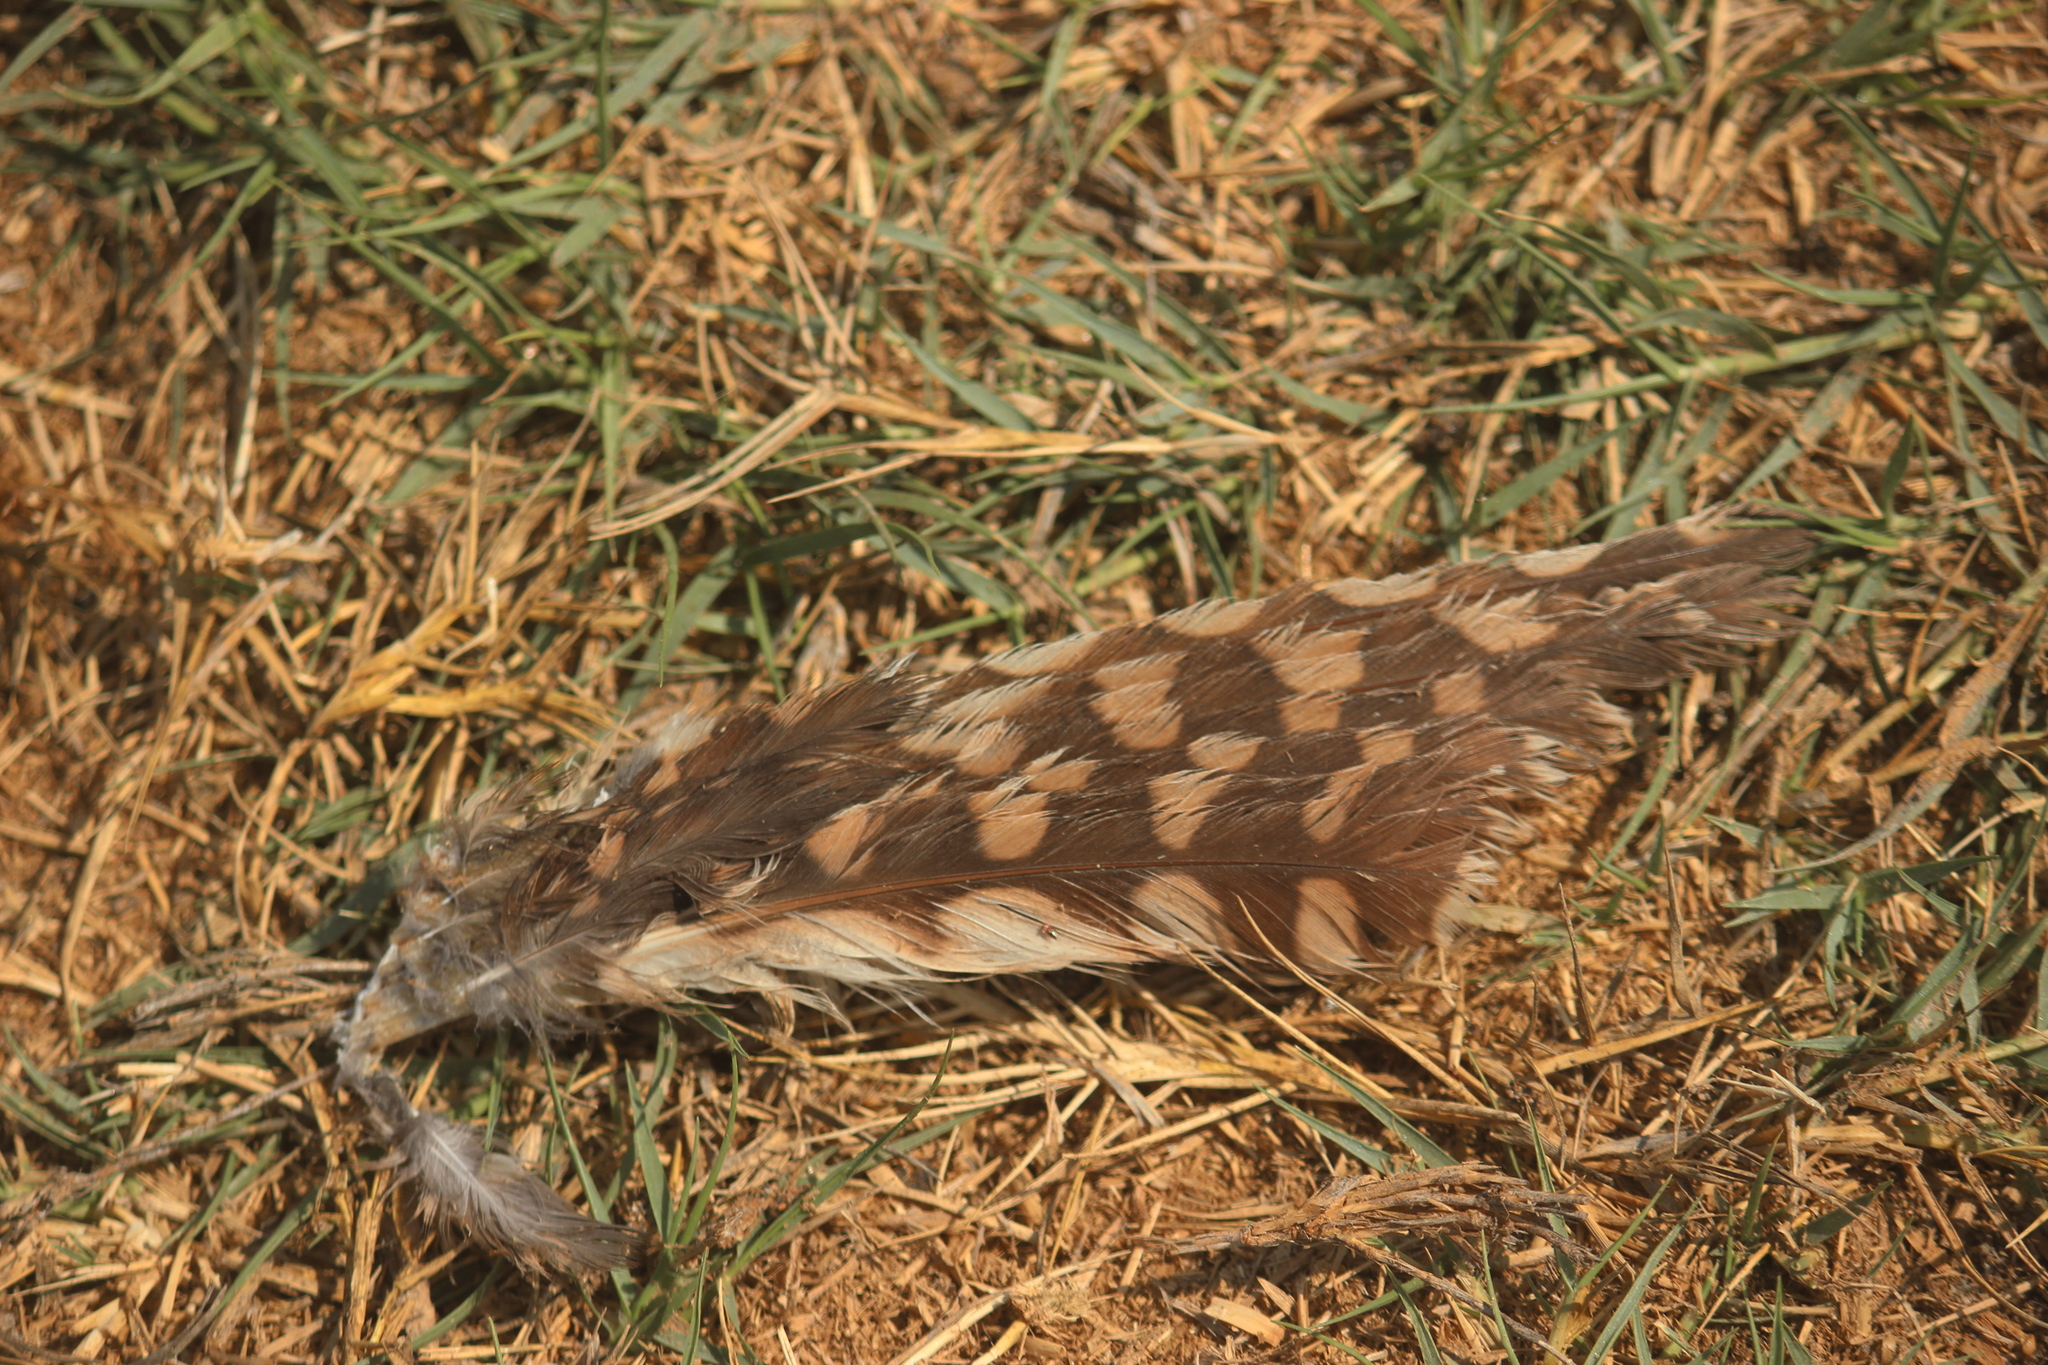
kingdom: Animalia
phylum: Chordata
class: Aves
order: Strigiformes
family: Strigidae
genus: Athene
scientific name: Athene cunicularia
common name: Burrowing owl
